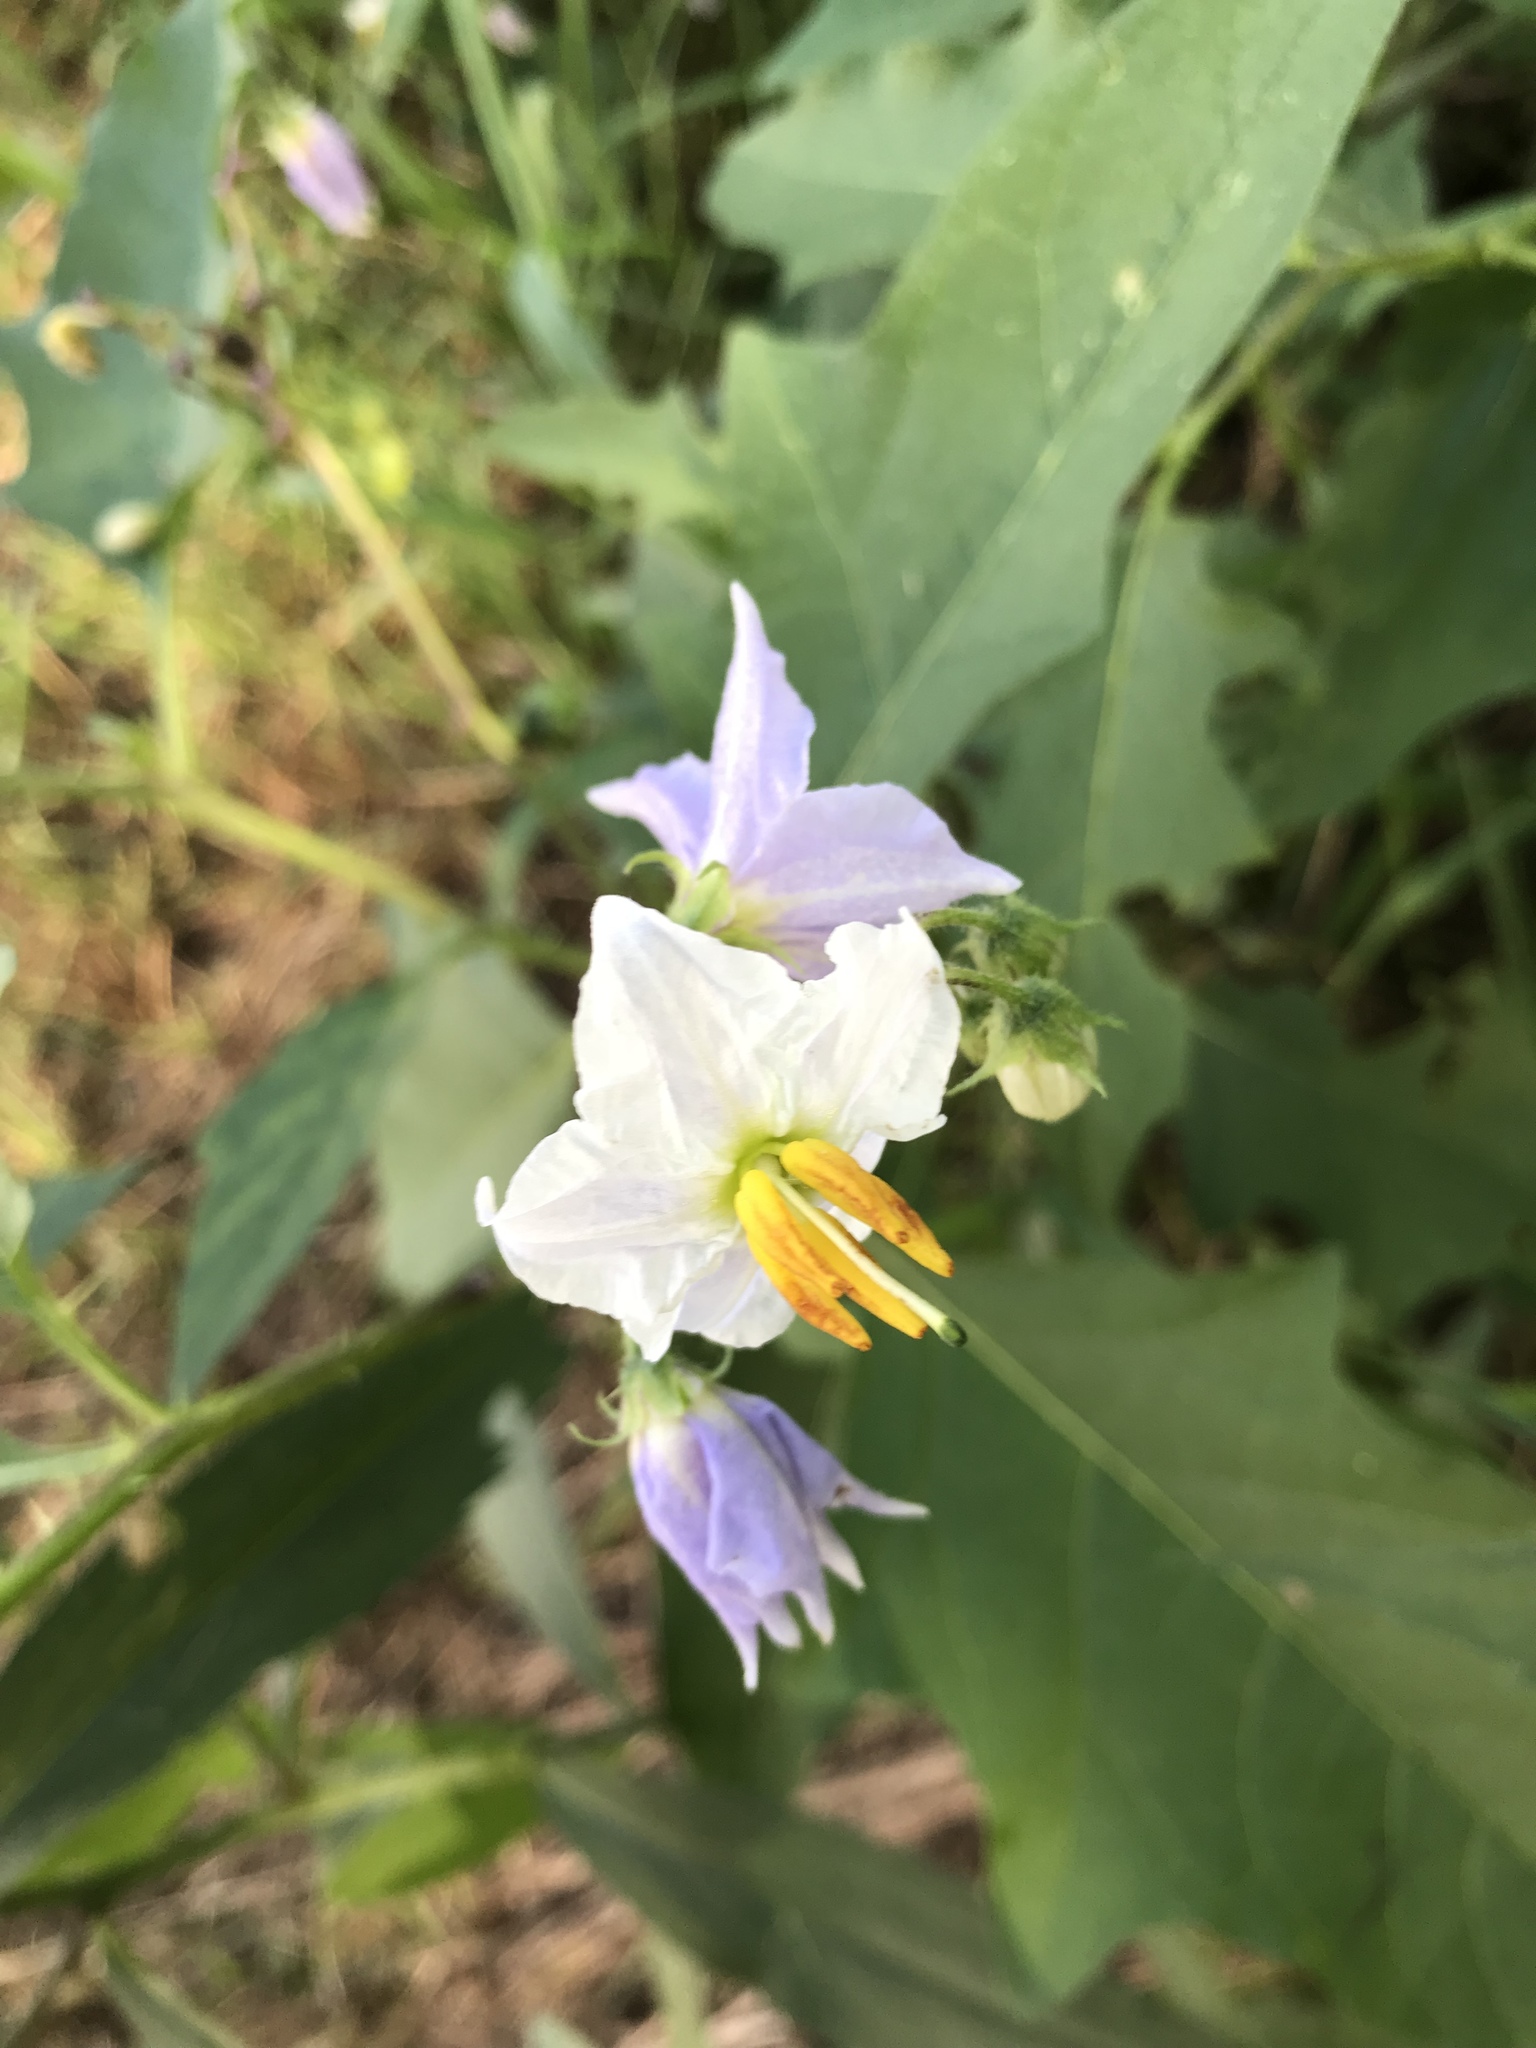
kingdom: Plantae
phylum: Tracheophyta
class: Magnoliopsida
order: Solanales
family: Solanaceae
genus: Solanum
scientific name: Solanum carolinense
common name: Horse-nettle
